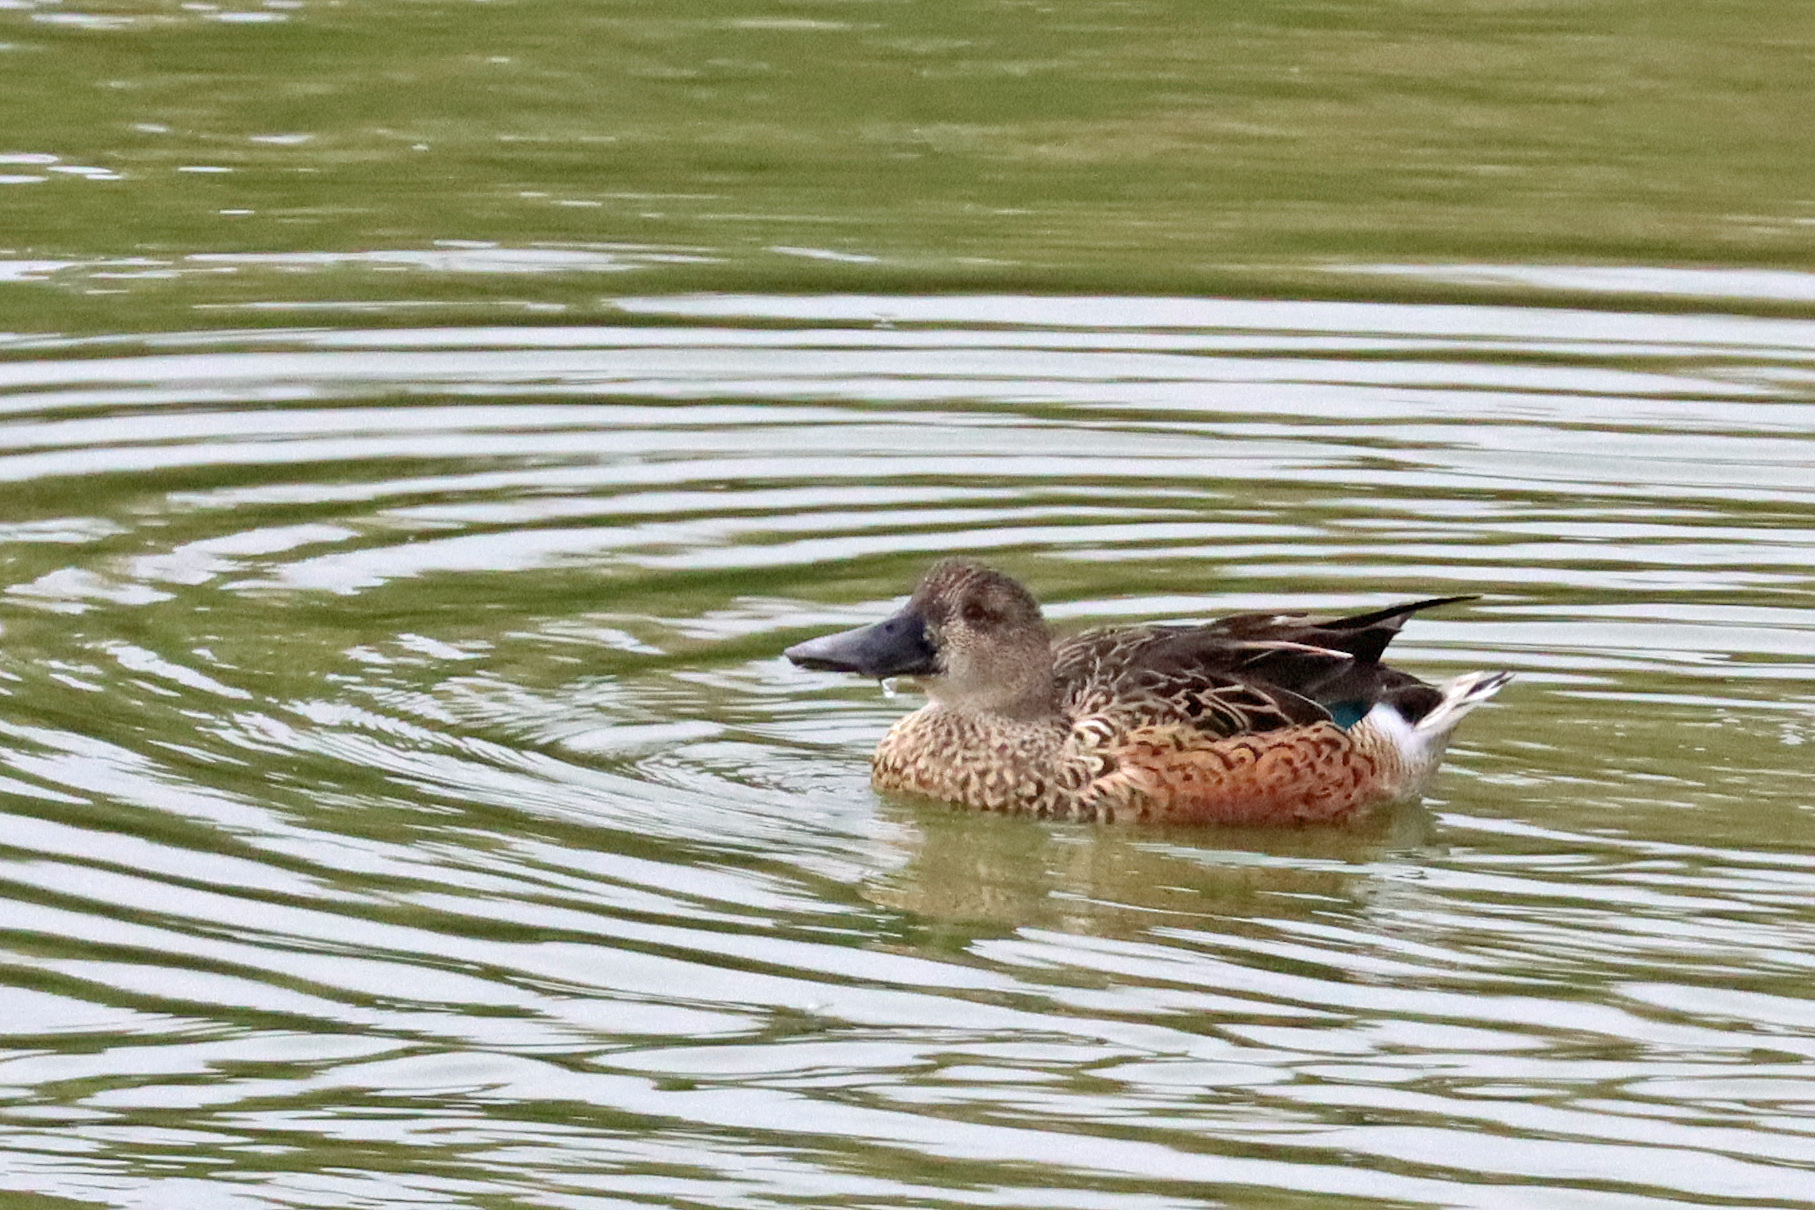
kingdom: Animalia
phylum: Chordata
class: Aves
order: Anseriformes
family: Anatidae
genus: Spatula
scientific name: Spatula clypeata
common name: Northern shoveler
